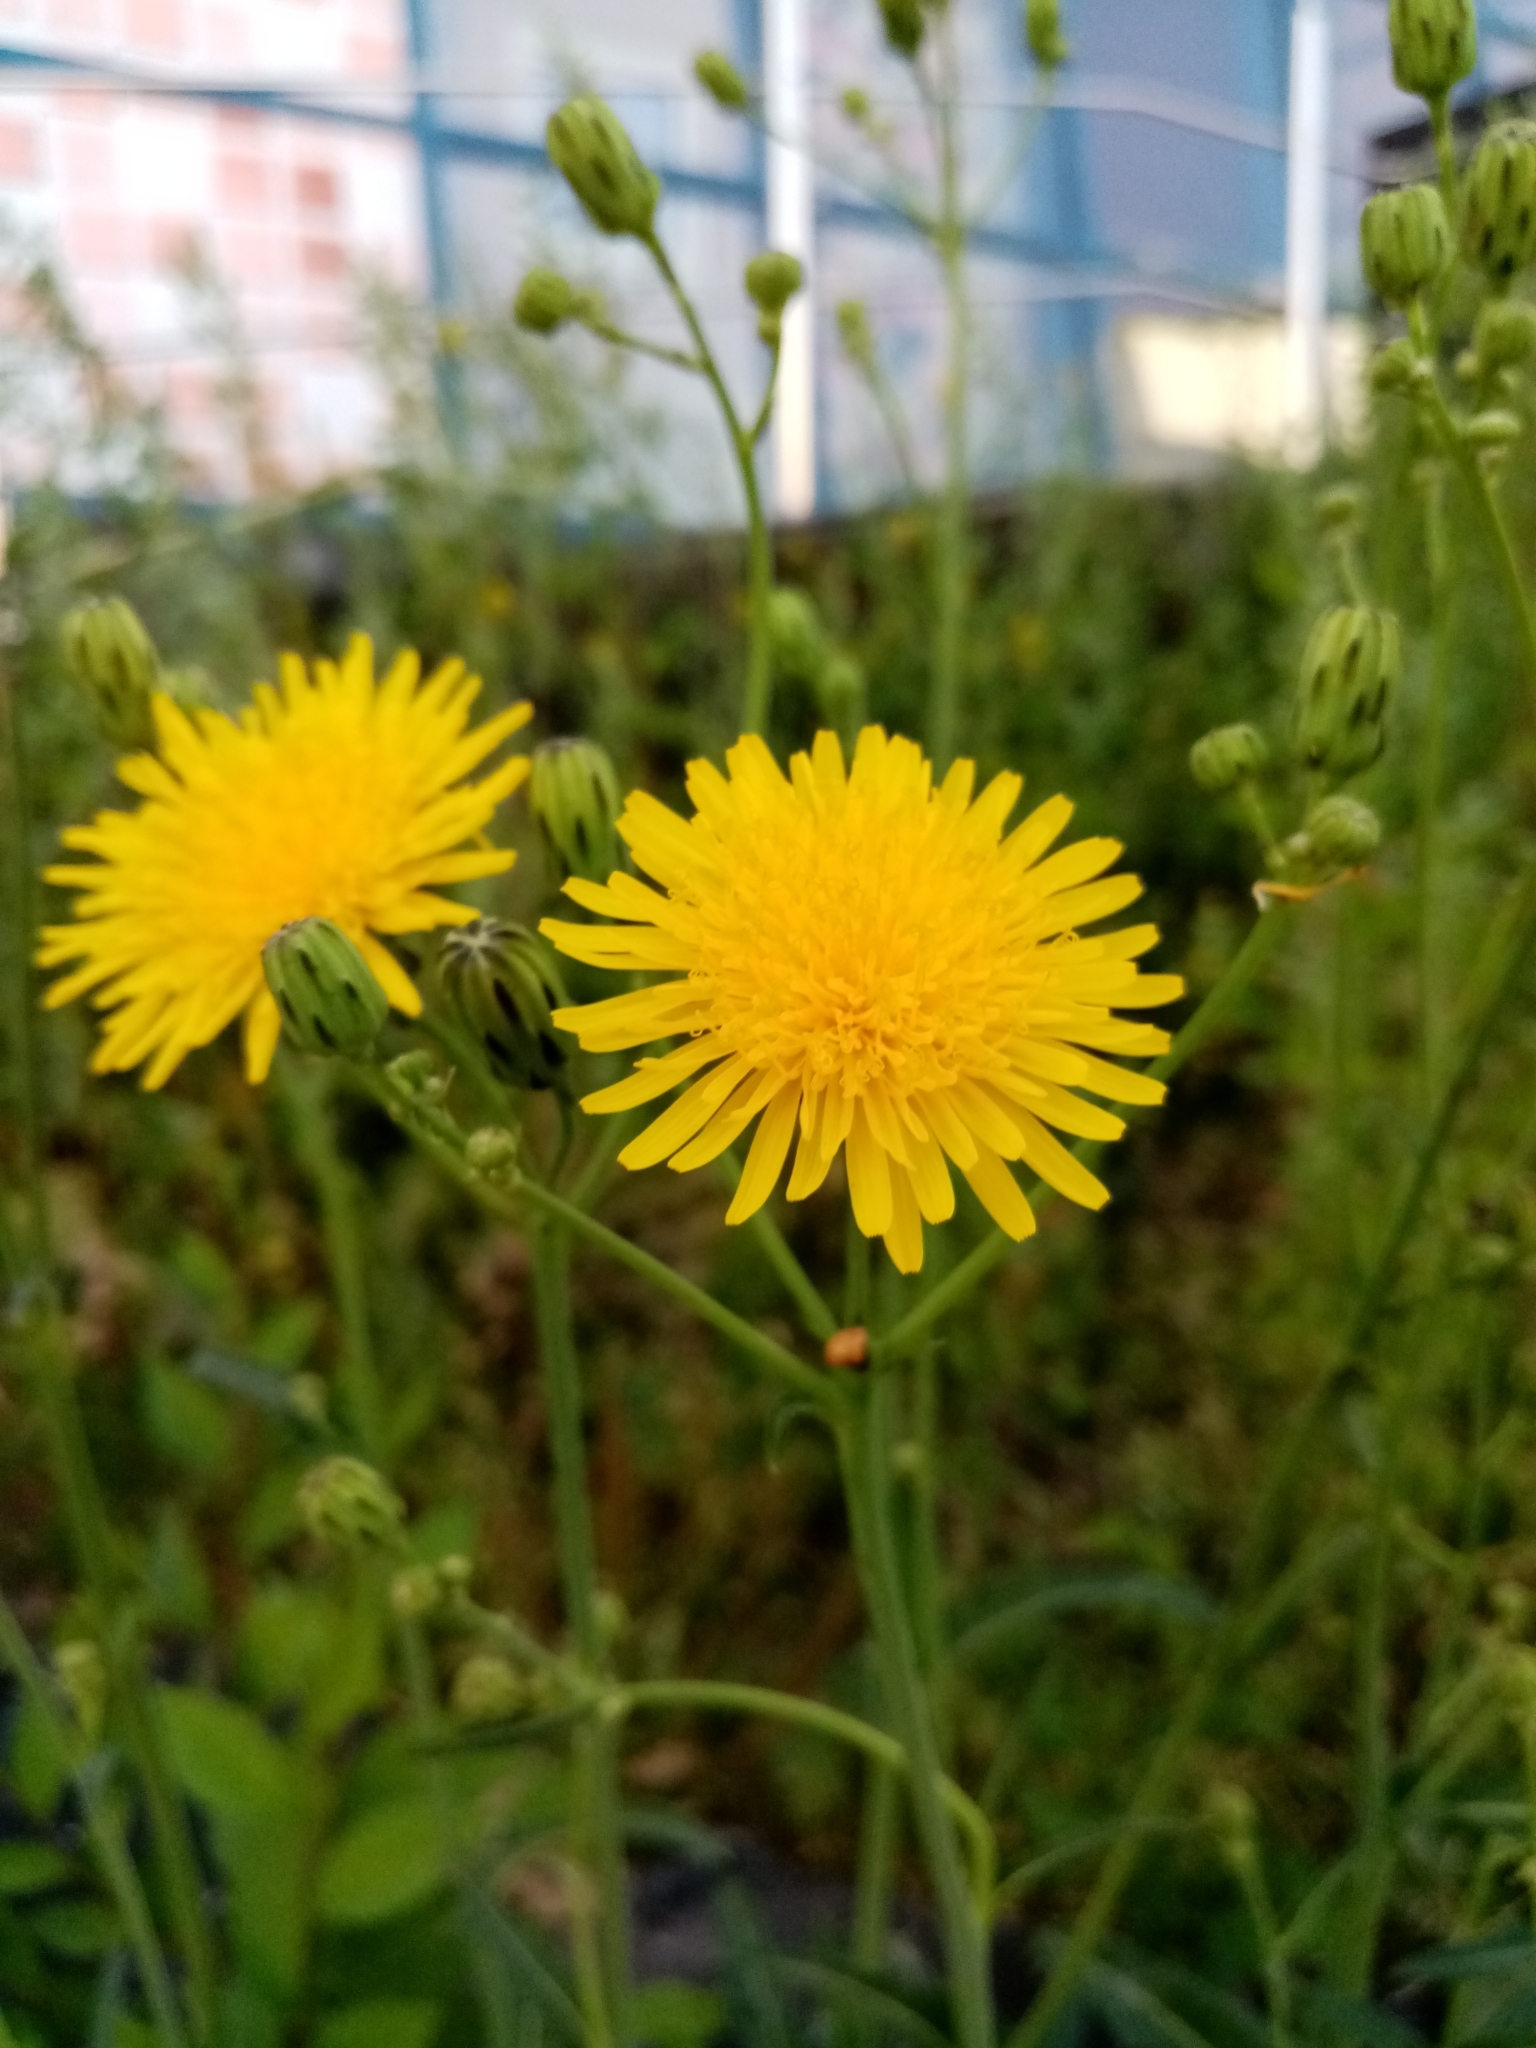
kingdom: Plantae
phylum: Tracheophyta
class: Magnoliopsida
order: Asterales
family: Asteraceae
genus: Sonchus
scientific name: Sonchus arvensis
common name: Perennial sow-thistle
